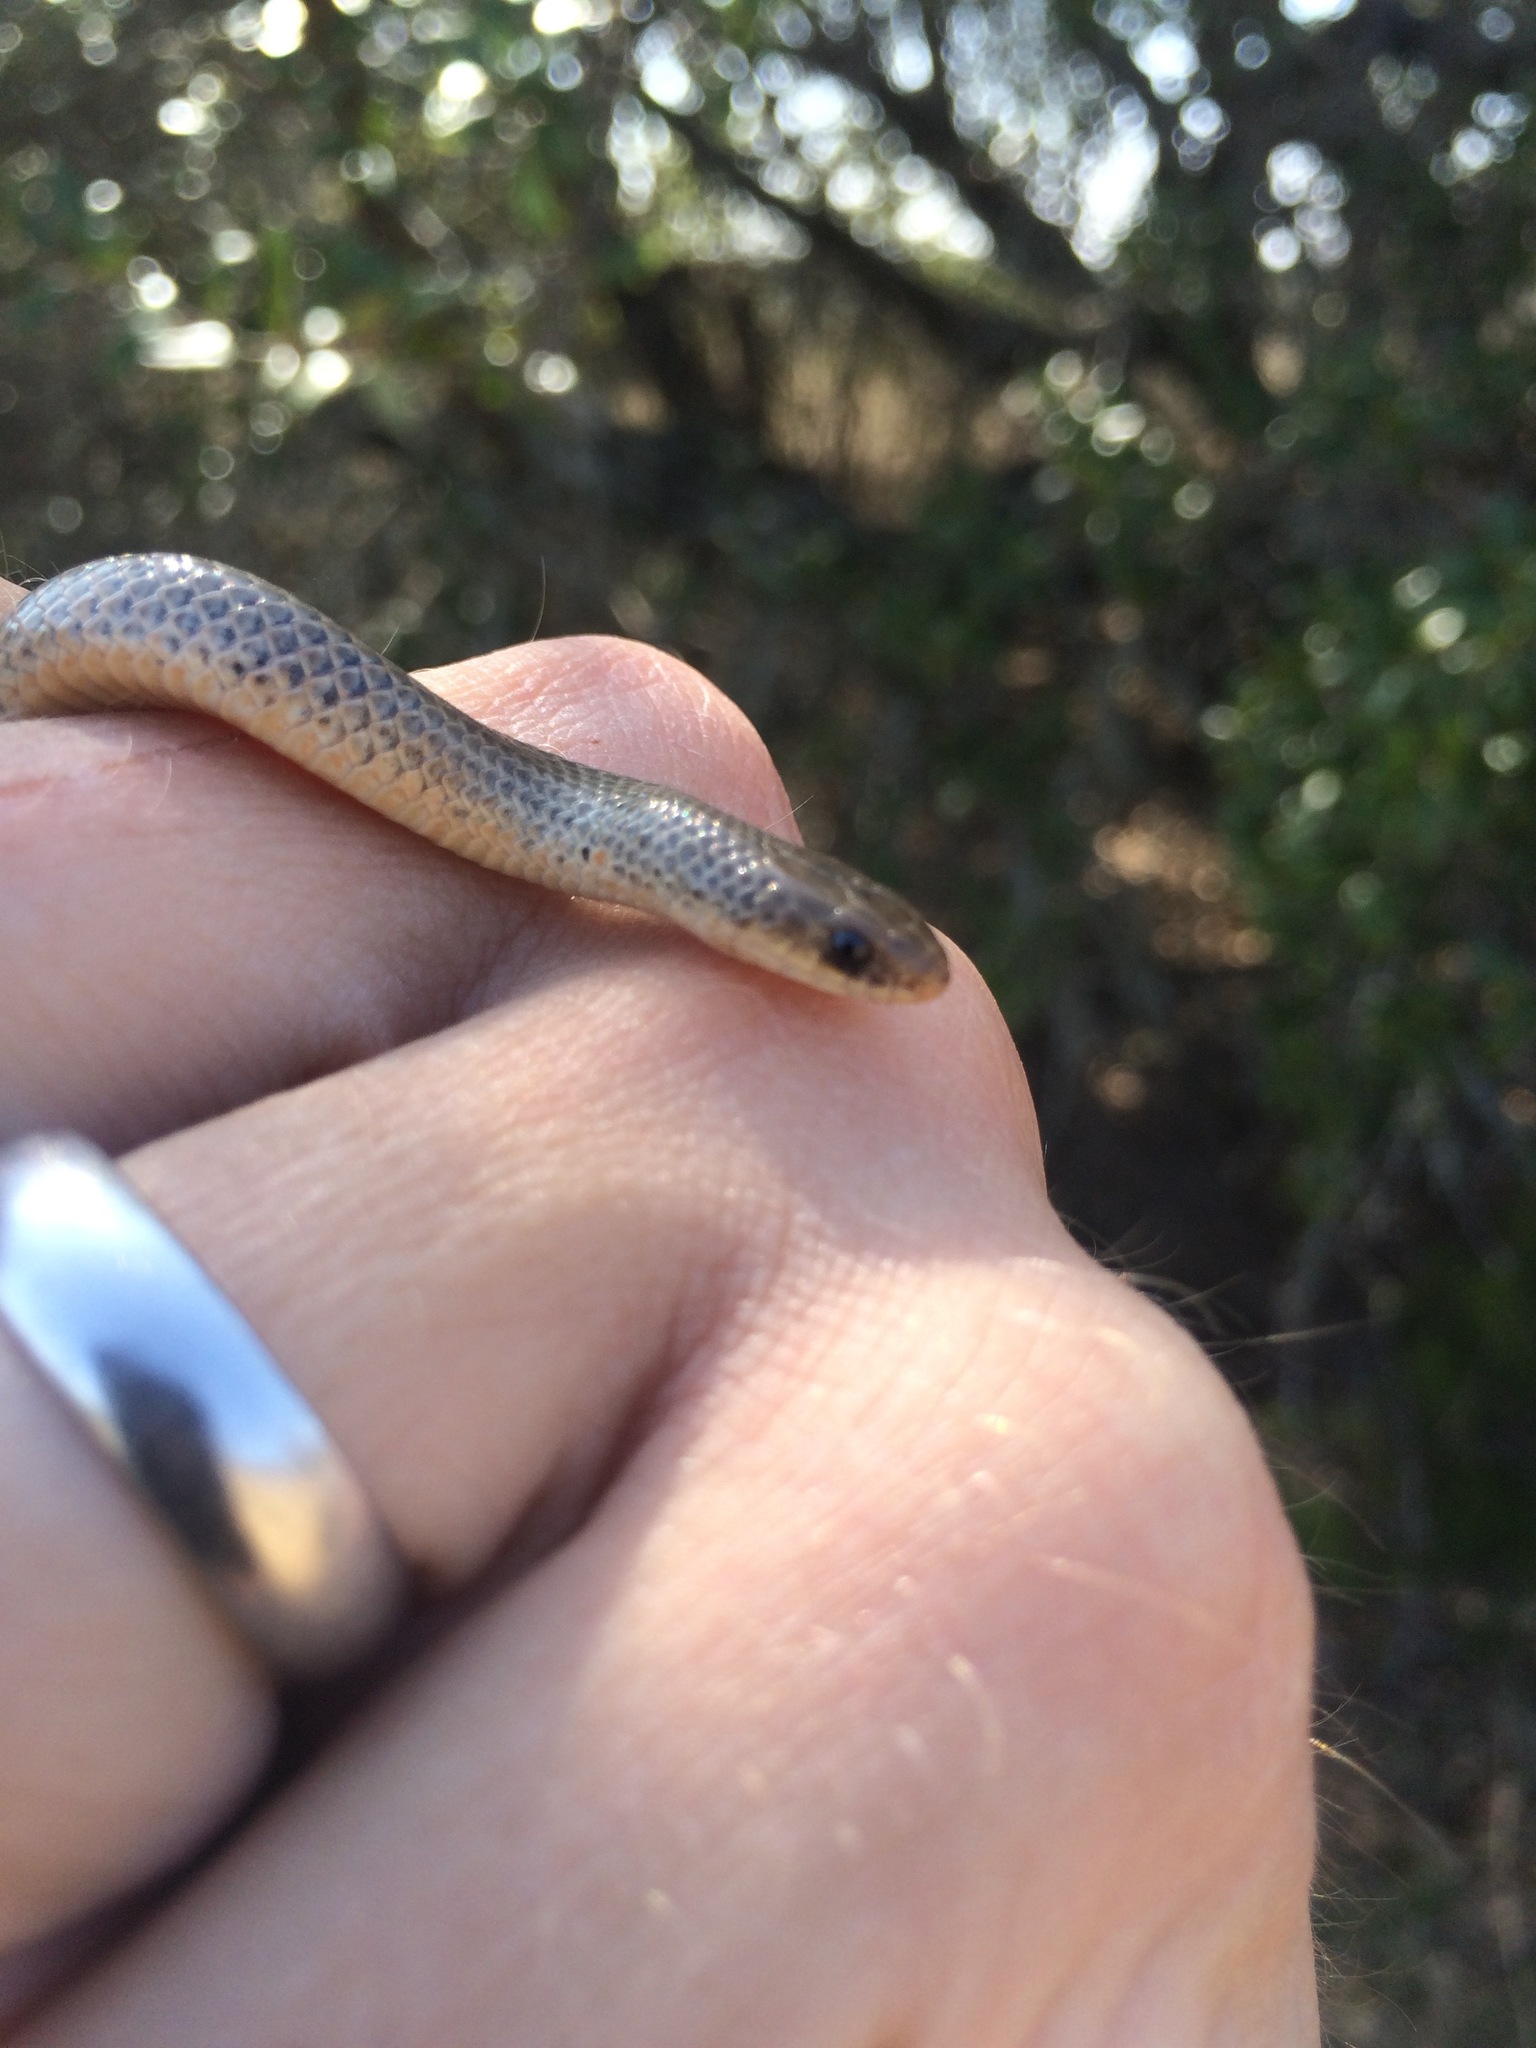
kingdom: Animalia
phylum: Chordata
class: Squamata
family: Colubridae
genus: Sonora
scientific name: Sonora episcopa
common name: Ground snake
